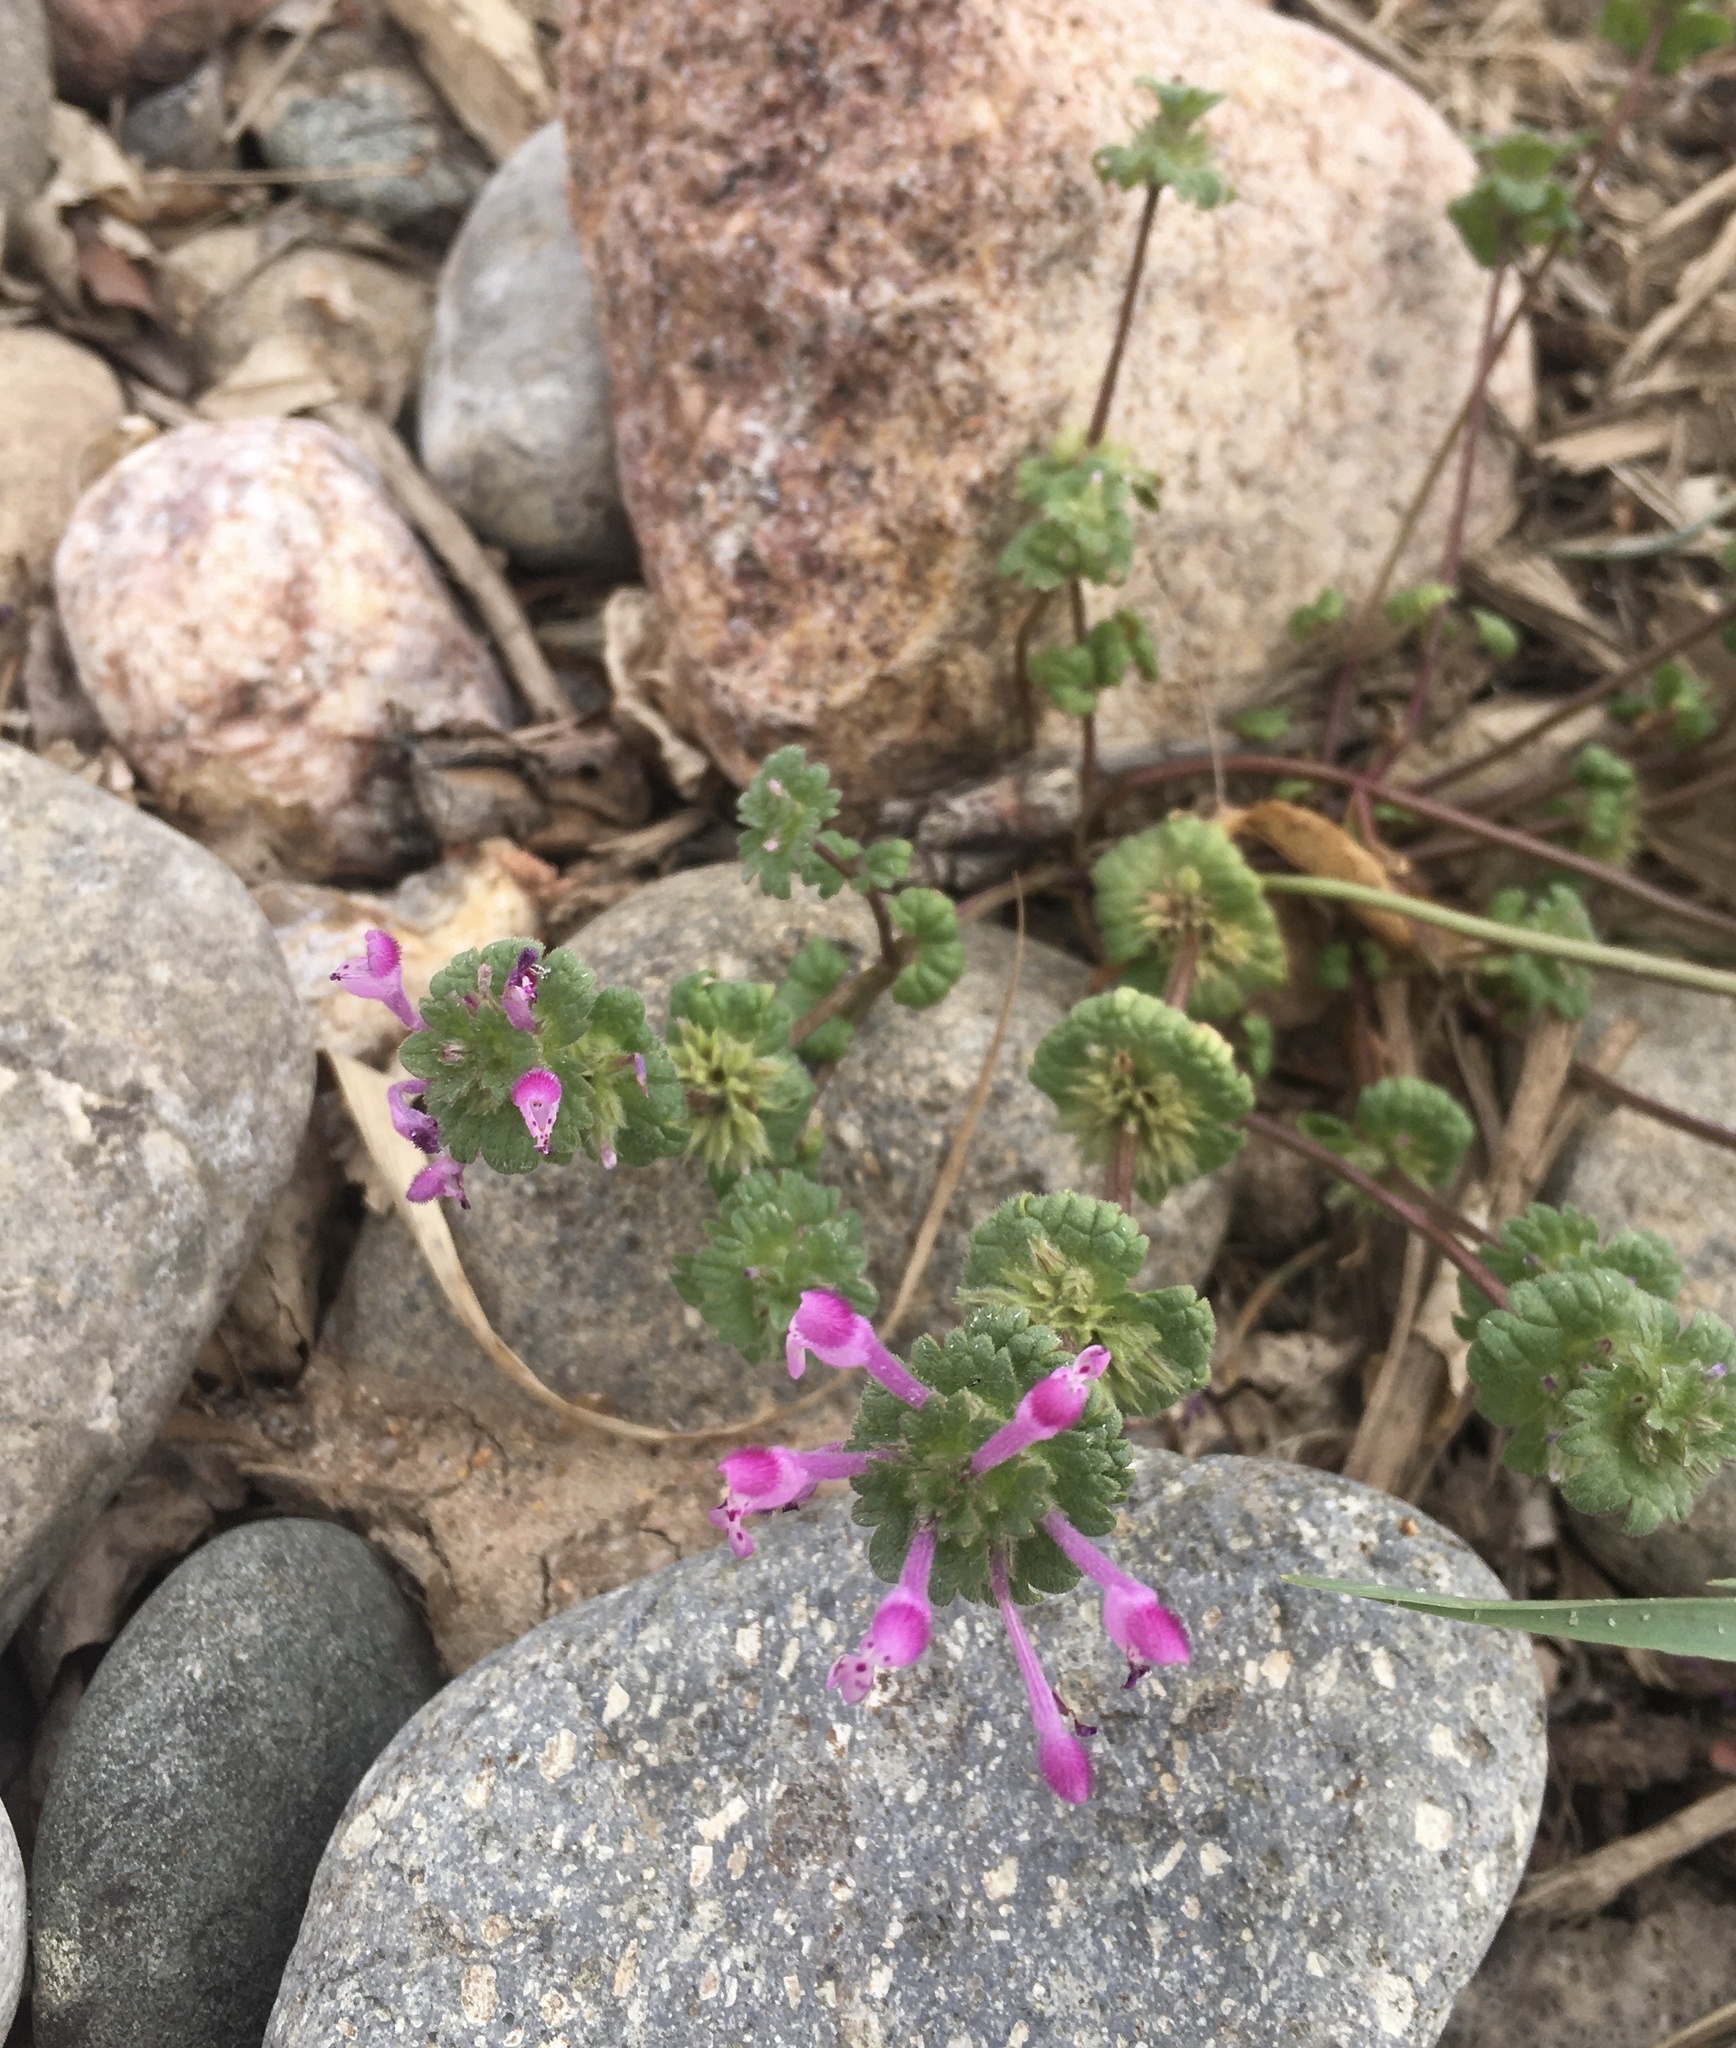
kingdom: Plantae
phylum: Tracheophyta
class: Magnoliopsida
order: Lamiales
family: Lamiaceae
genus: Lamium
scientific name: Lamium amplexicaule
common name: Henbit dead-nettle
